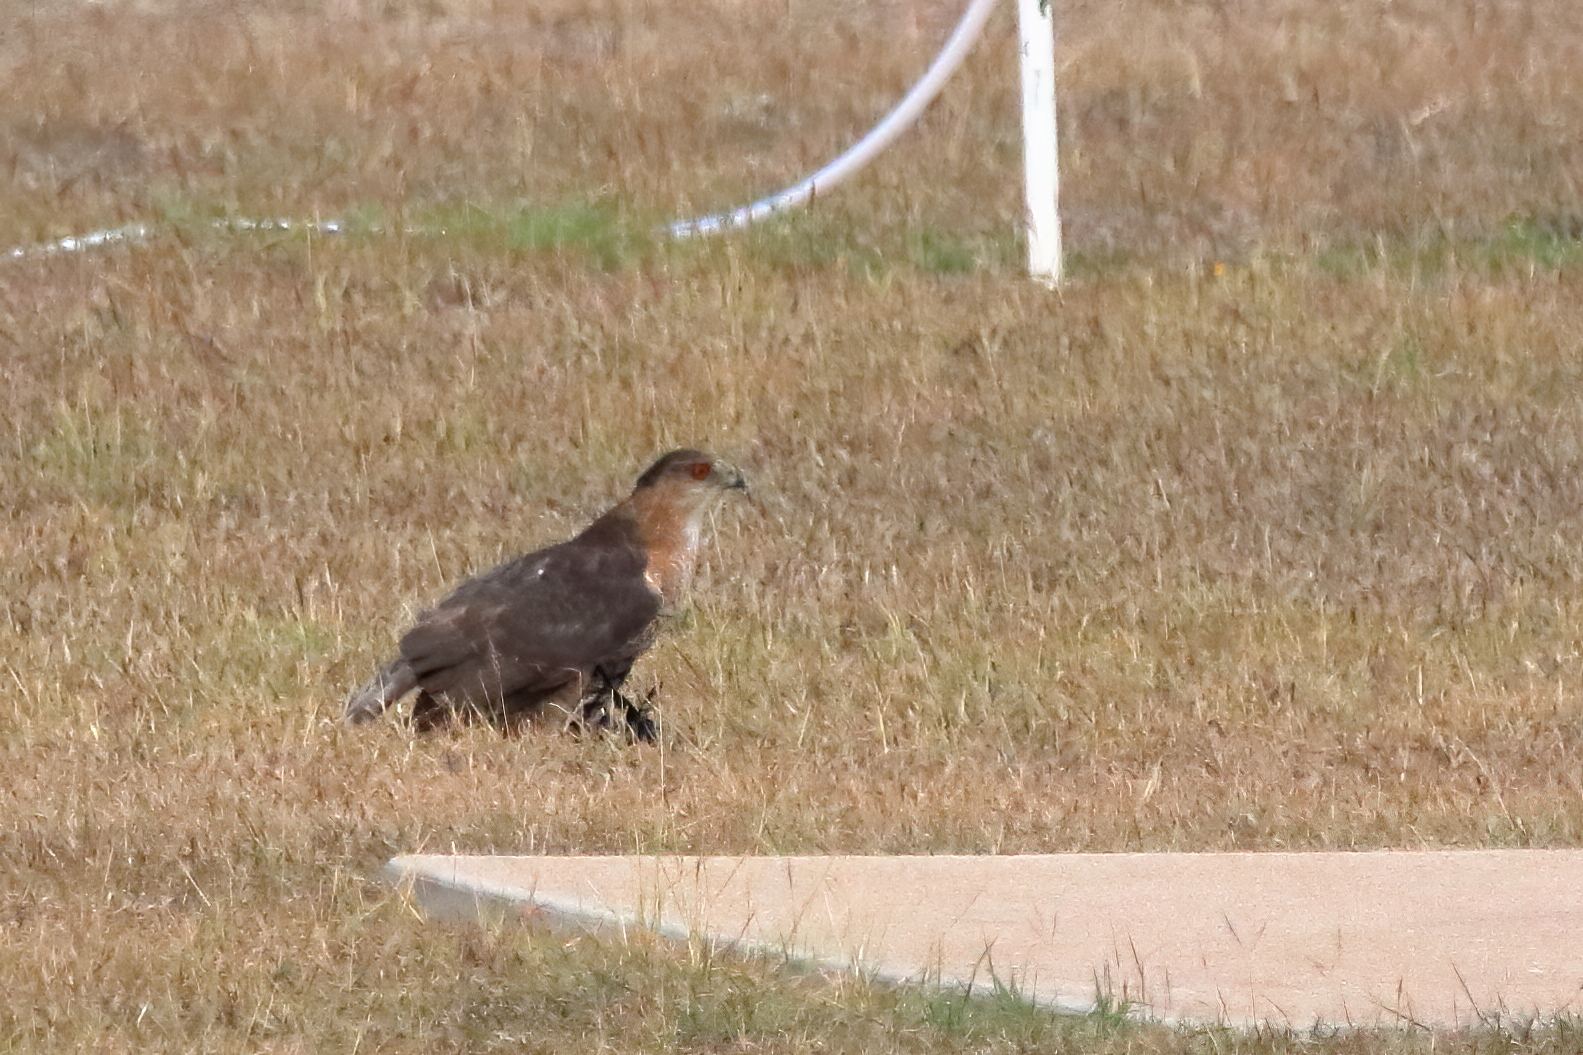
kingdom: Animalia
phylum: Chordata
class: Aves
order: Accipitriformes
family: Accipitridae
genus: Accipiter
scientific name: Accipiter cooperii
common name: Cooper's hawk
